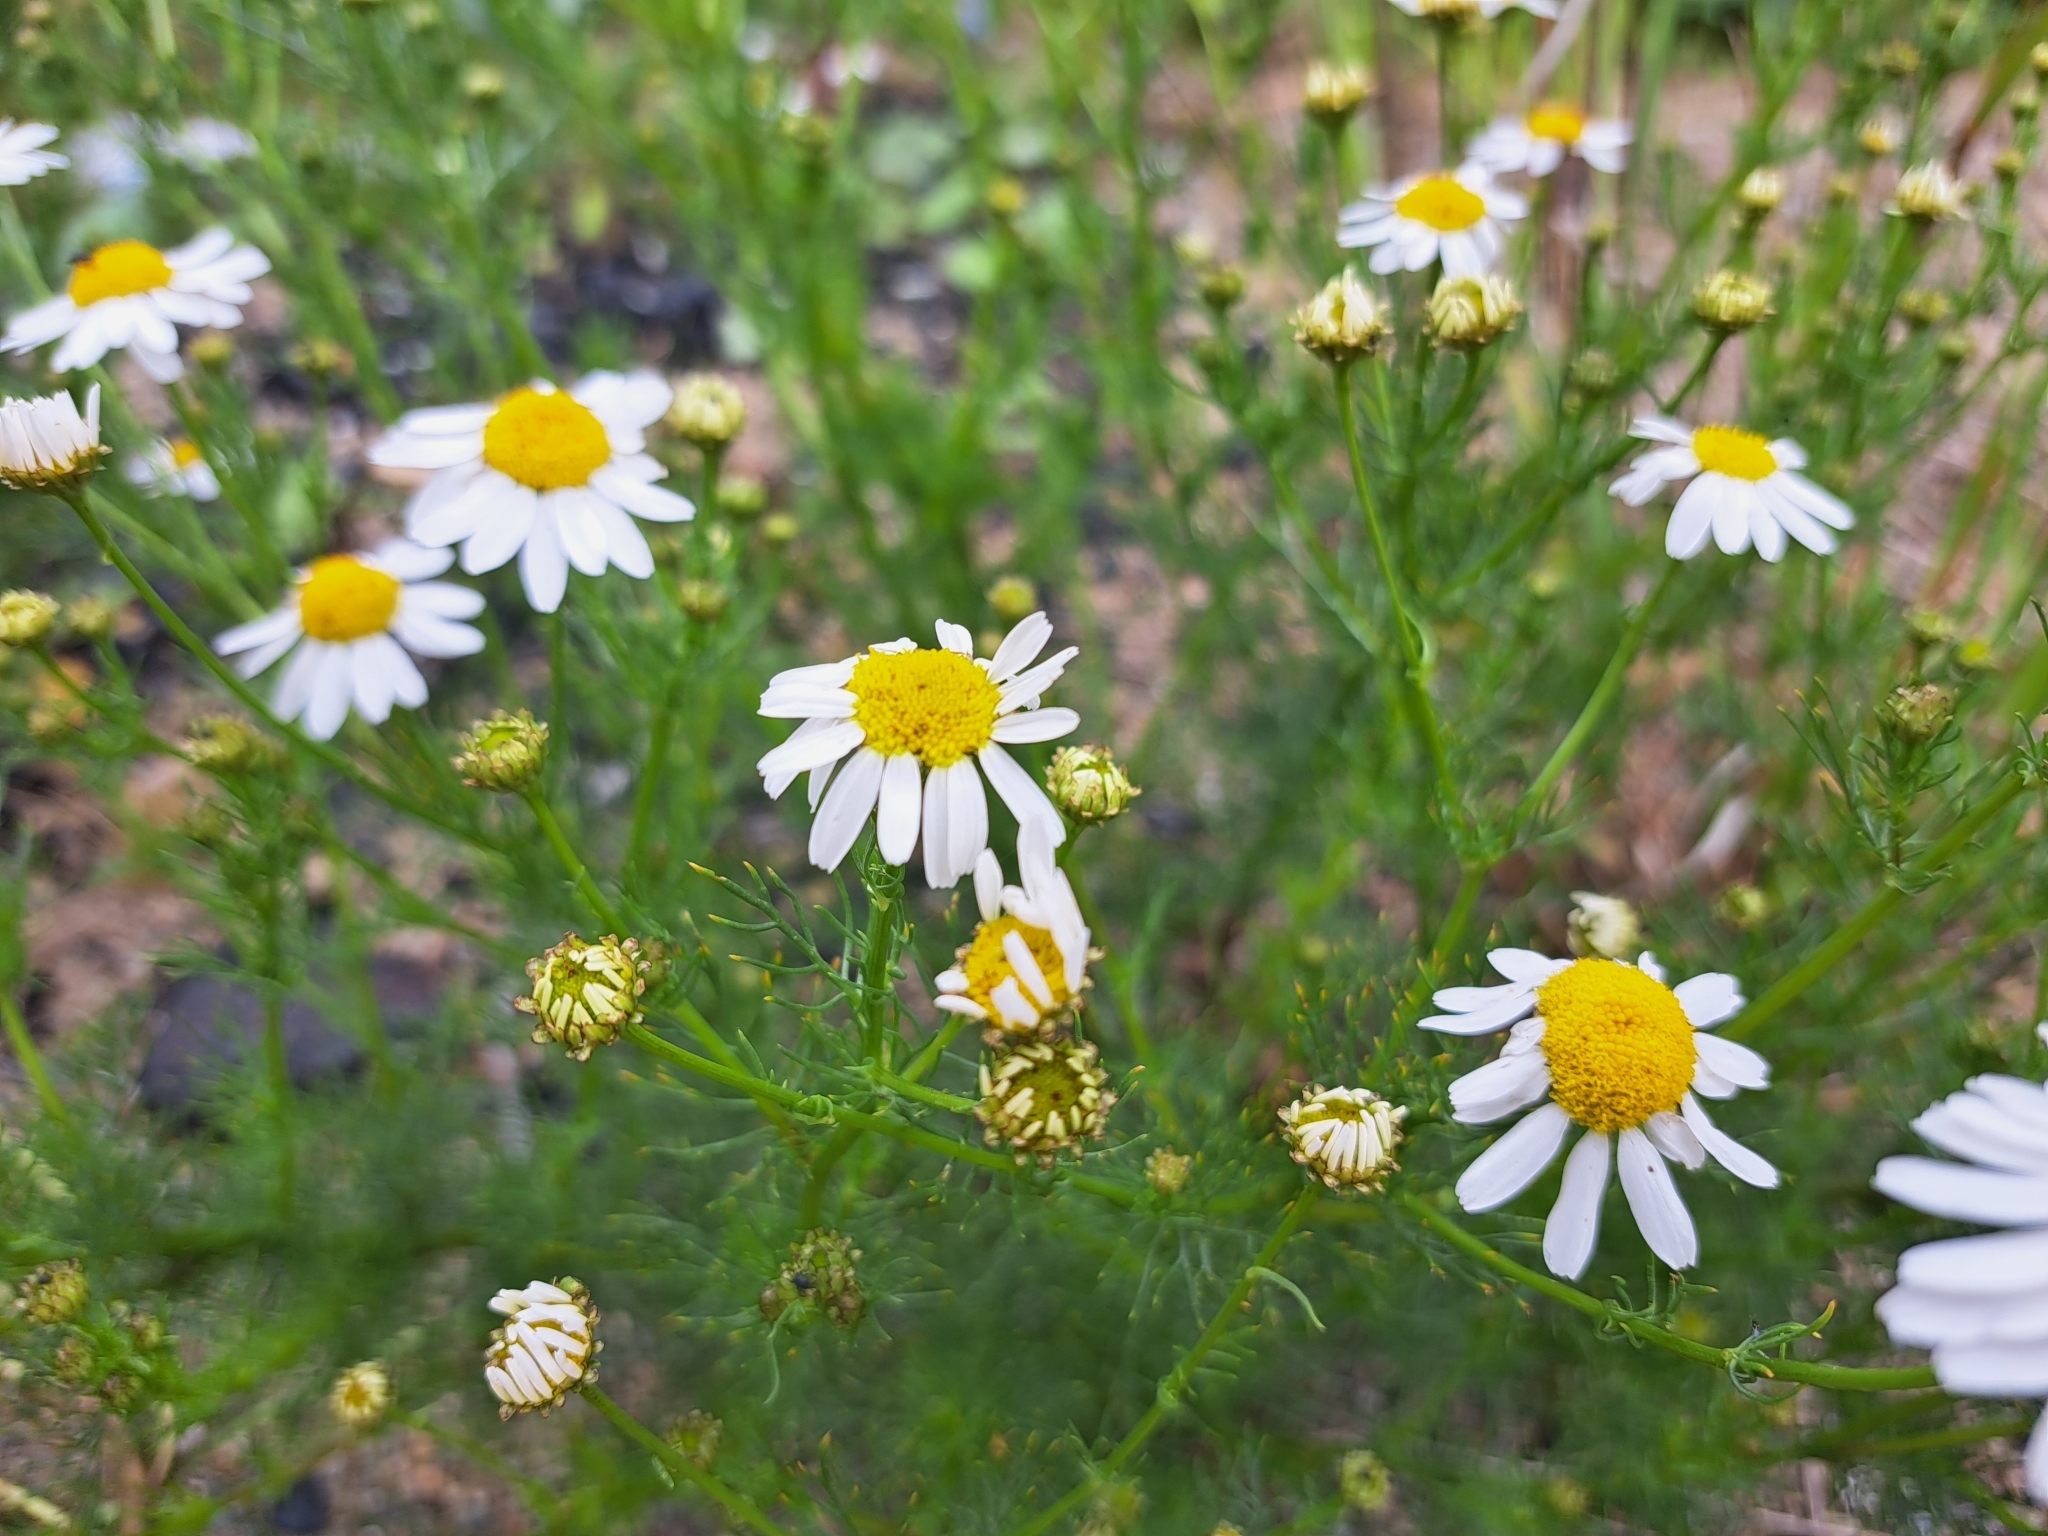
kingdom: Plantae
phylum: Tracheophyta
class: Magnoliopsida
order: Asterales
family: Asteraceae
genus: Tripleurospermum
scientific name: Tripleurospermum inodorum
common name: Scentless mayweed
